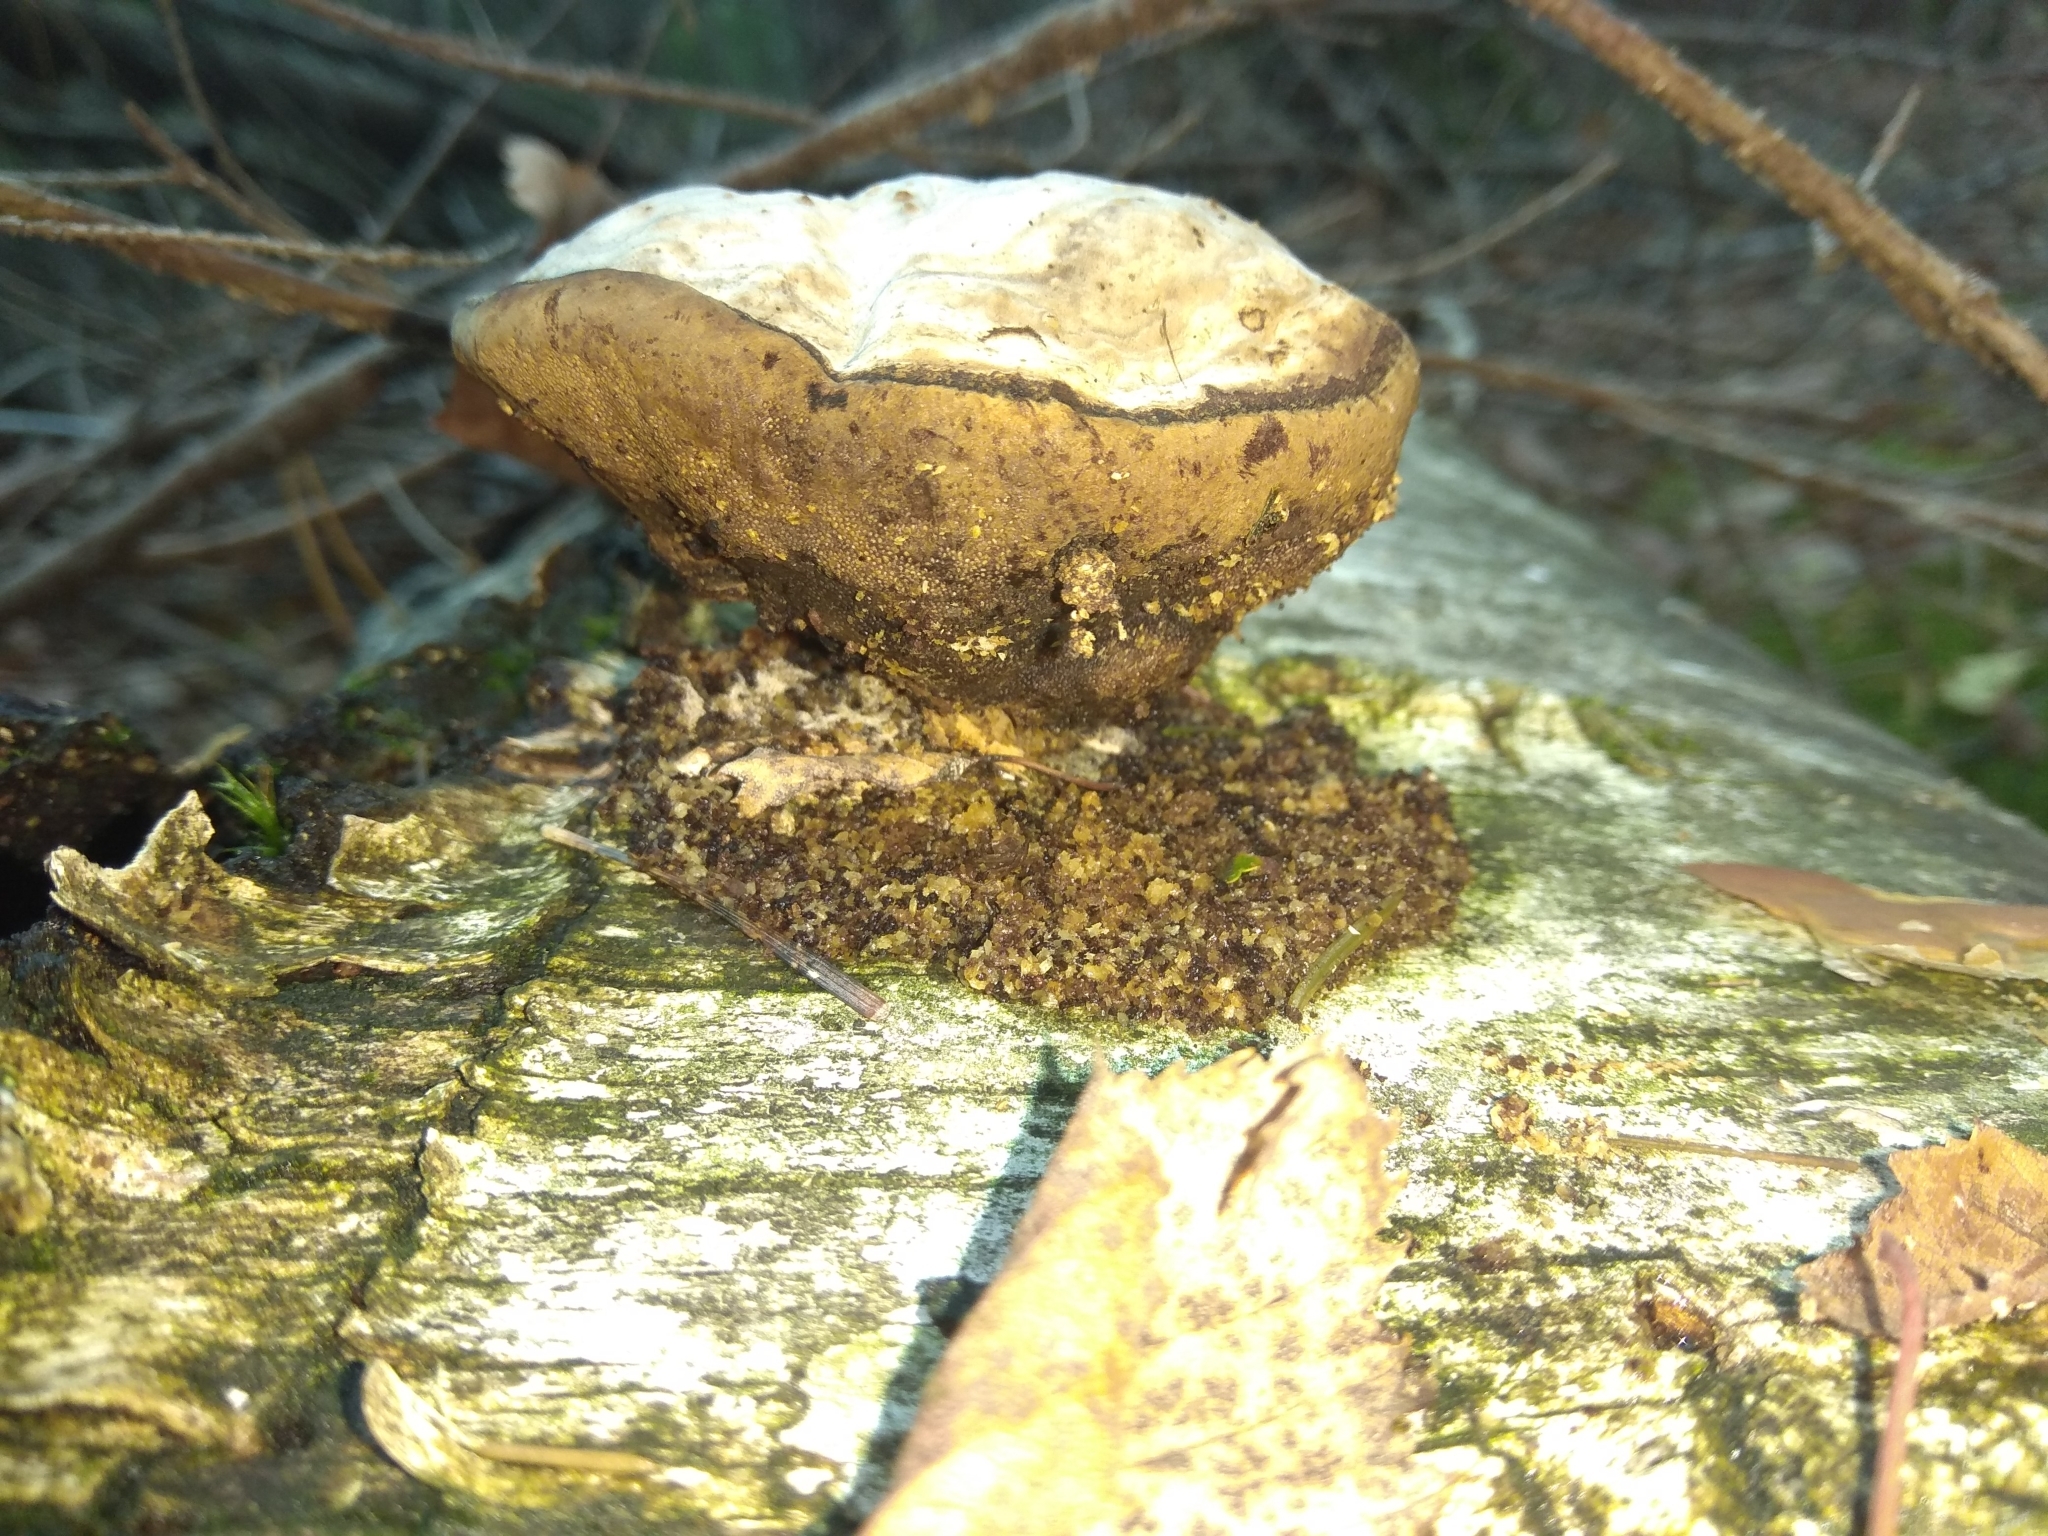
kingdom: Fungi
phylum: Basidiomycota
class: Agaricomycetes
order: Polyporales
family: Polyporaceae
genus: Fomes
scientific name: Fomes fomentarius
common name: Hoof fungus
